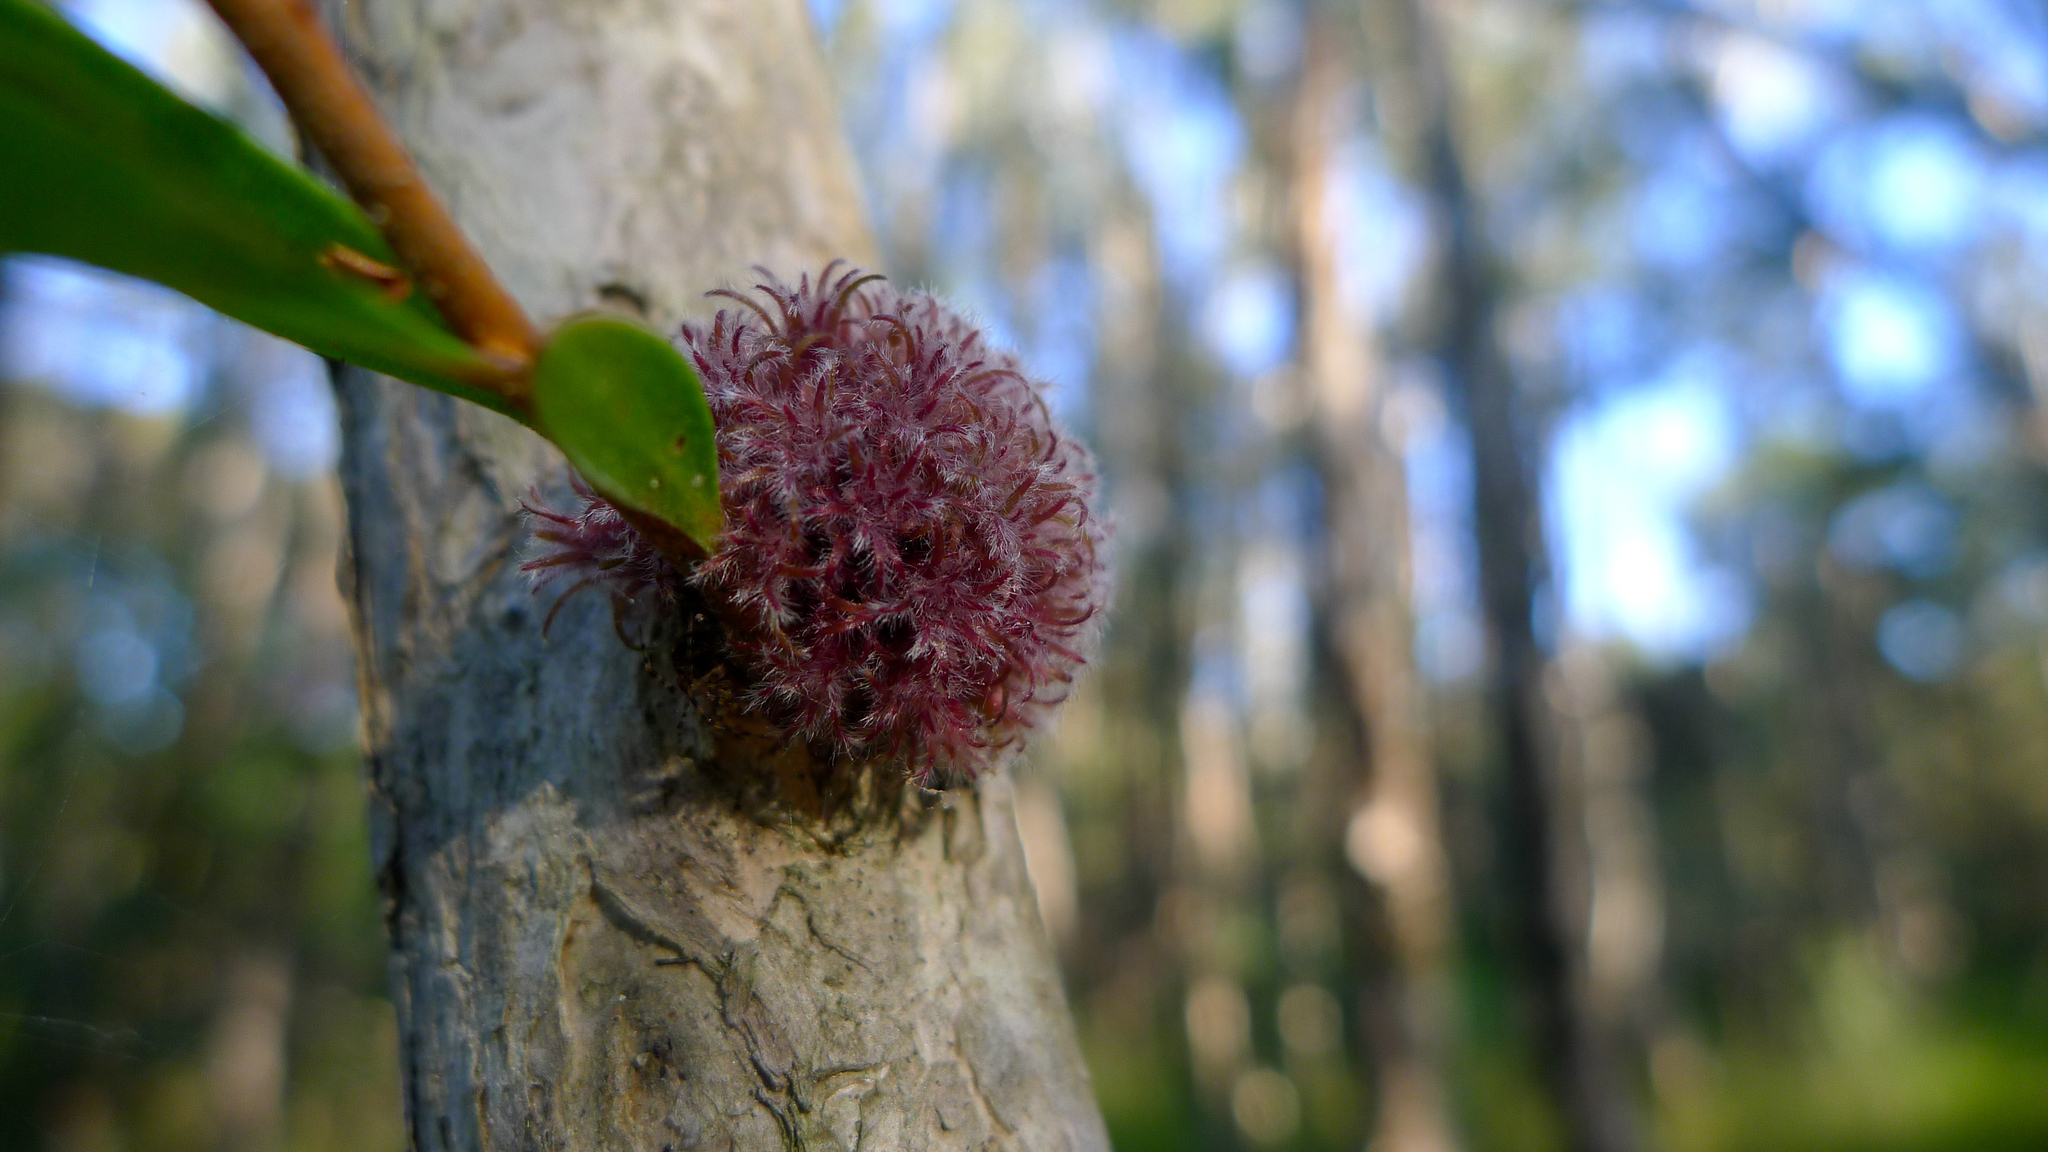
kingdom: Animalia
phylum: Arthropoda
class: Insecta
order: Hemiptera
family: Beesoniidae
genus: Beesonia
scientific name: Beesonia ferrugineus
